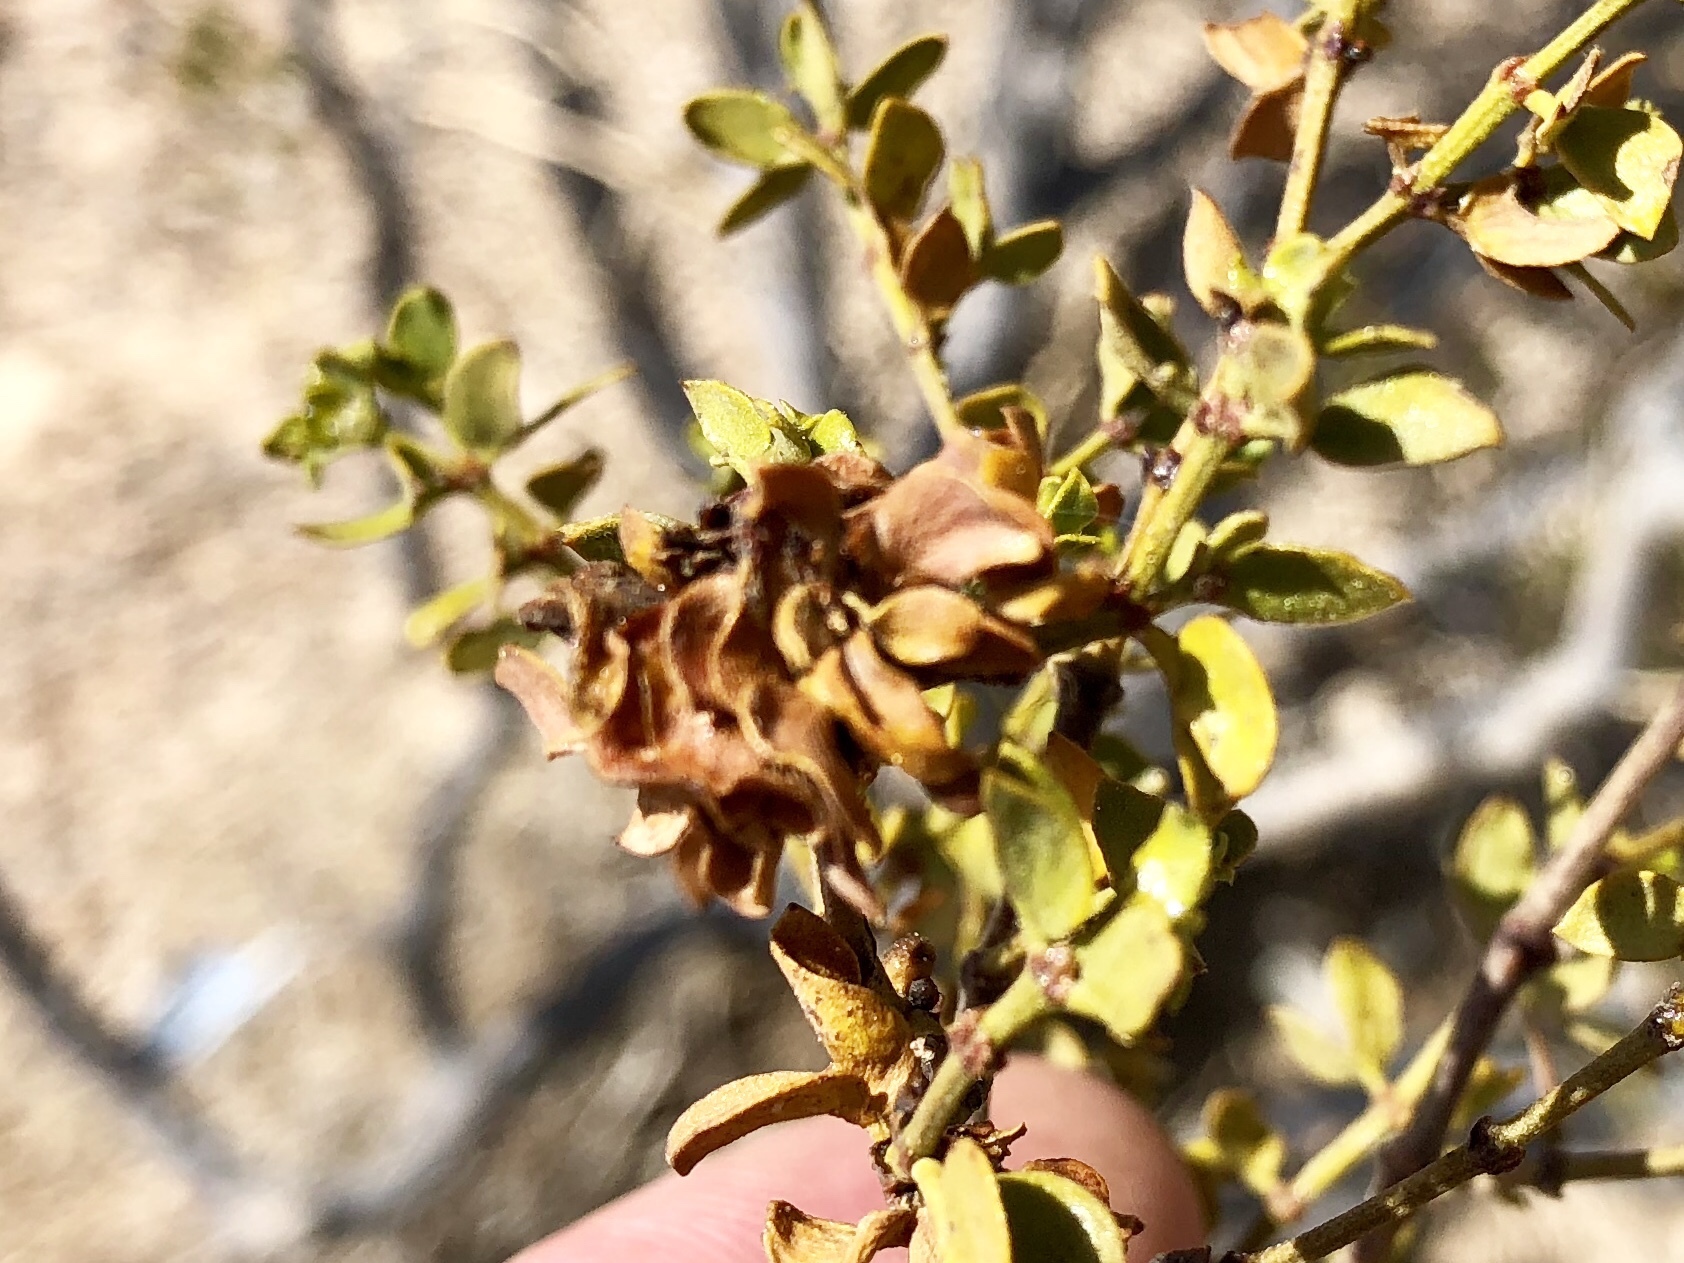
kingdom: Animalia
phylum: Arthropoda
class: Insecta
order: Diptera
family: Cecidomyiidae
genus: Contarinia
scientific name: Contarinia
